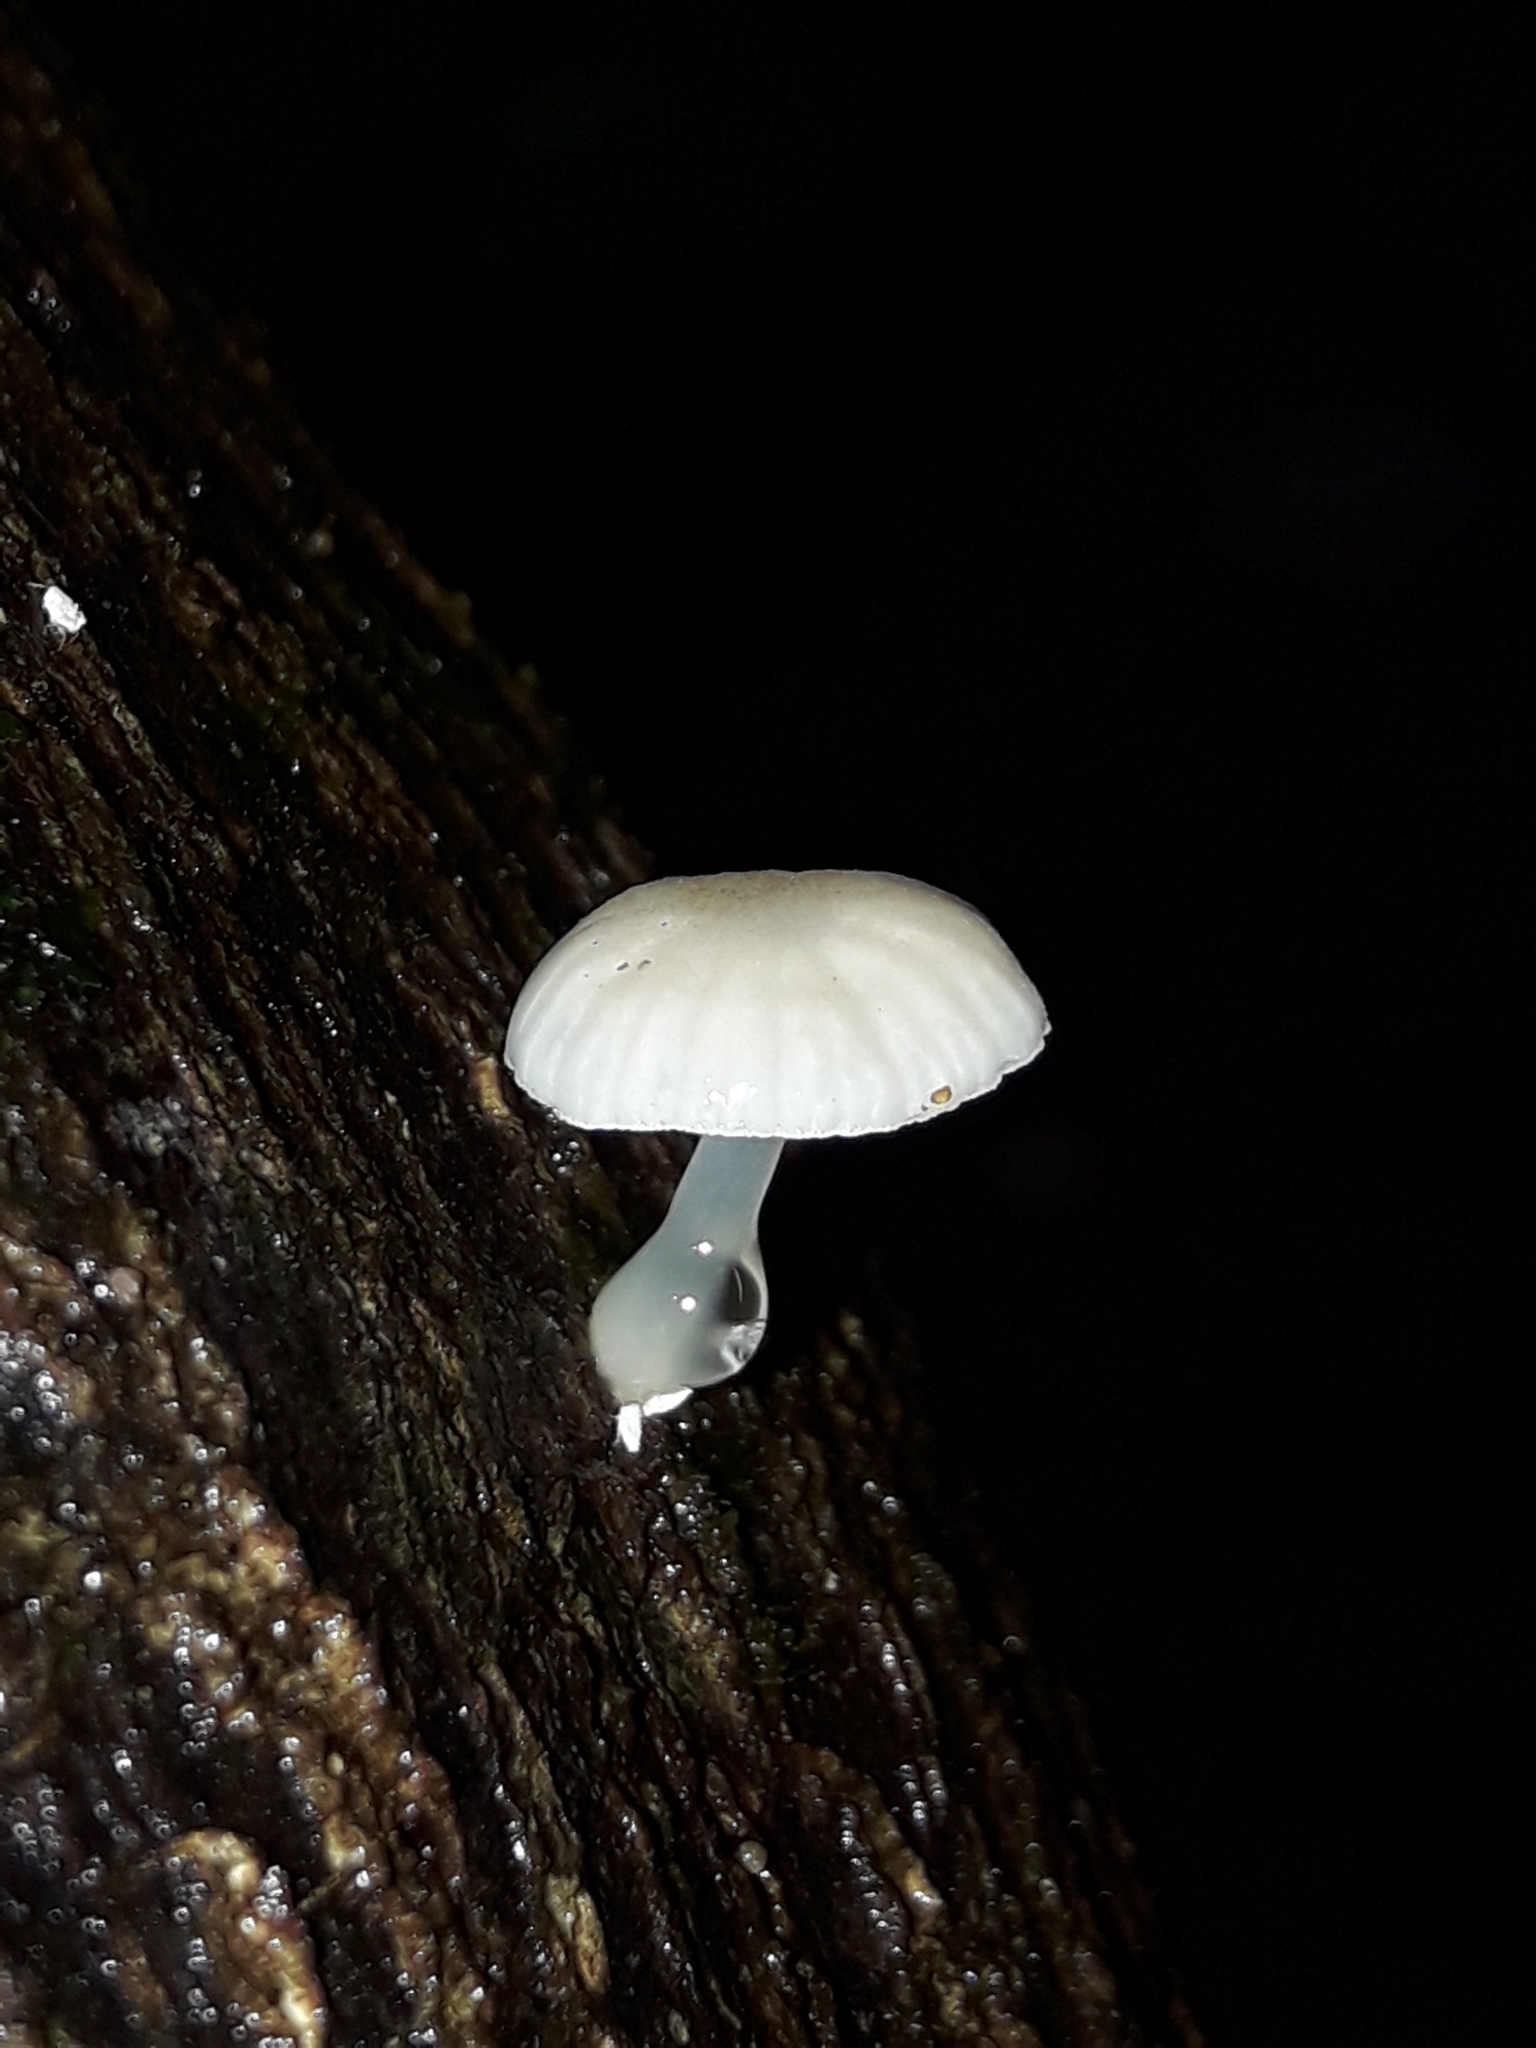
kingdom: Fungi
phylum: Basidiomycota
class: Agaricomycetes
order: Agaricales
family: Mycenaceae
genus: Roridomyces
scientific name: Roridomyces austrororidus
